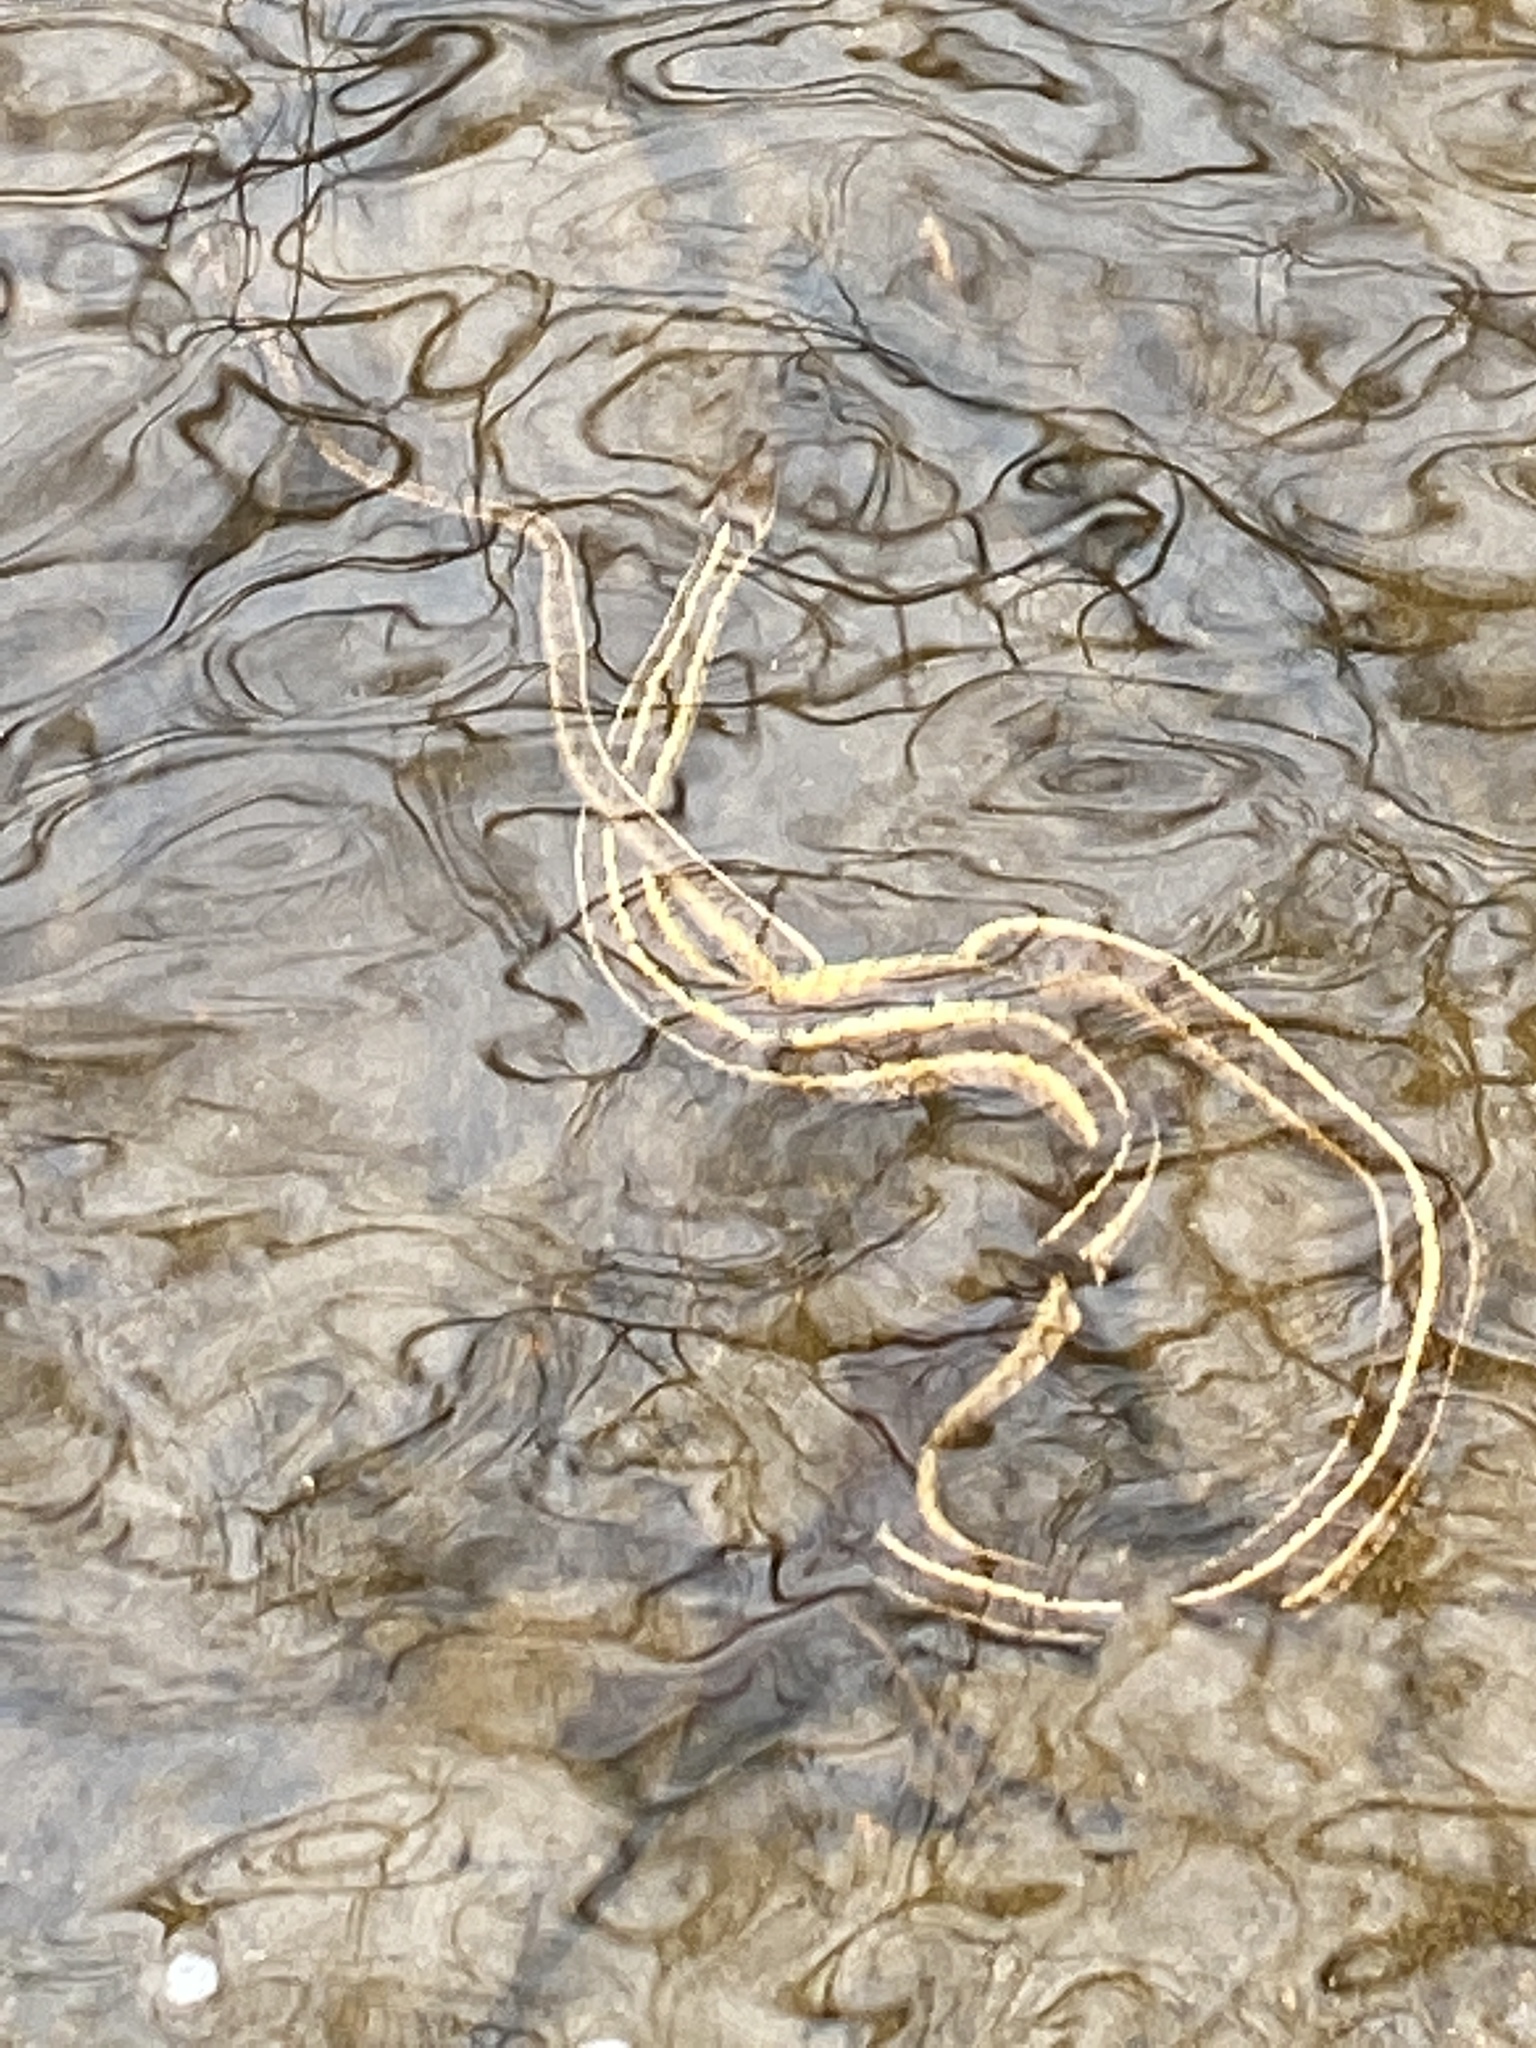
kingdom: Animalia
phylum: Chordata
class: Squamata
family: Colubridae
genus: Thamnophis
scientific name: Thamnophis sirtalis
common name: Common garter snake
